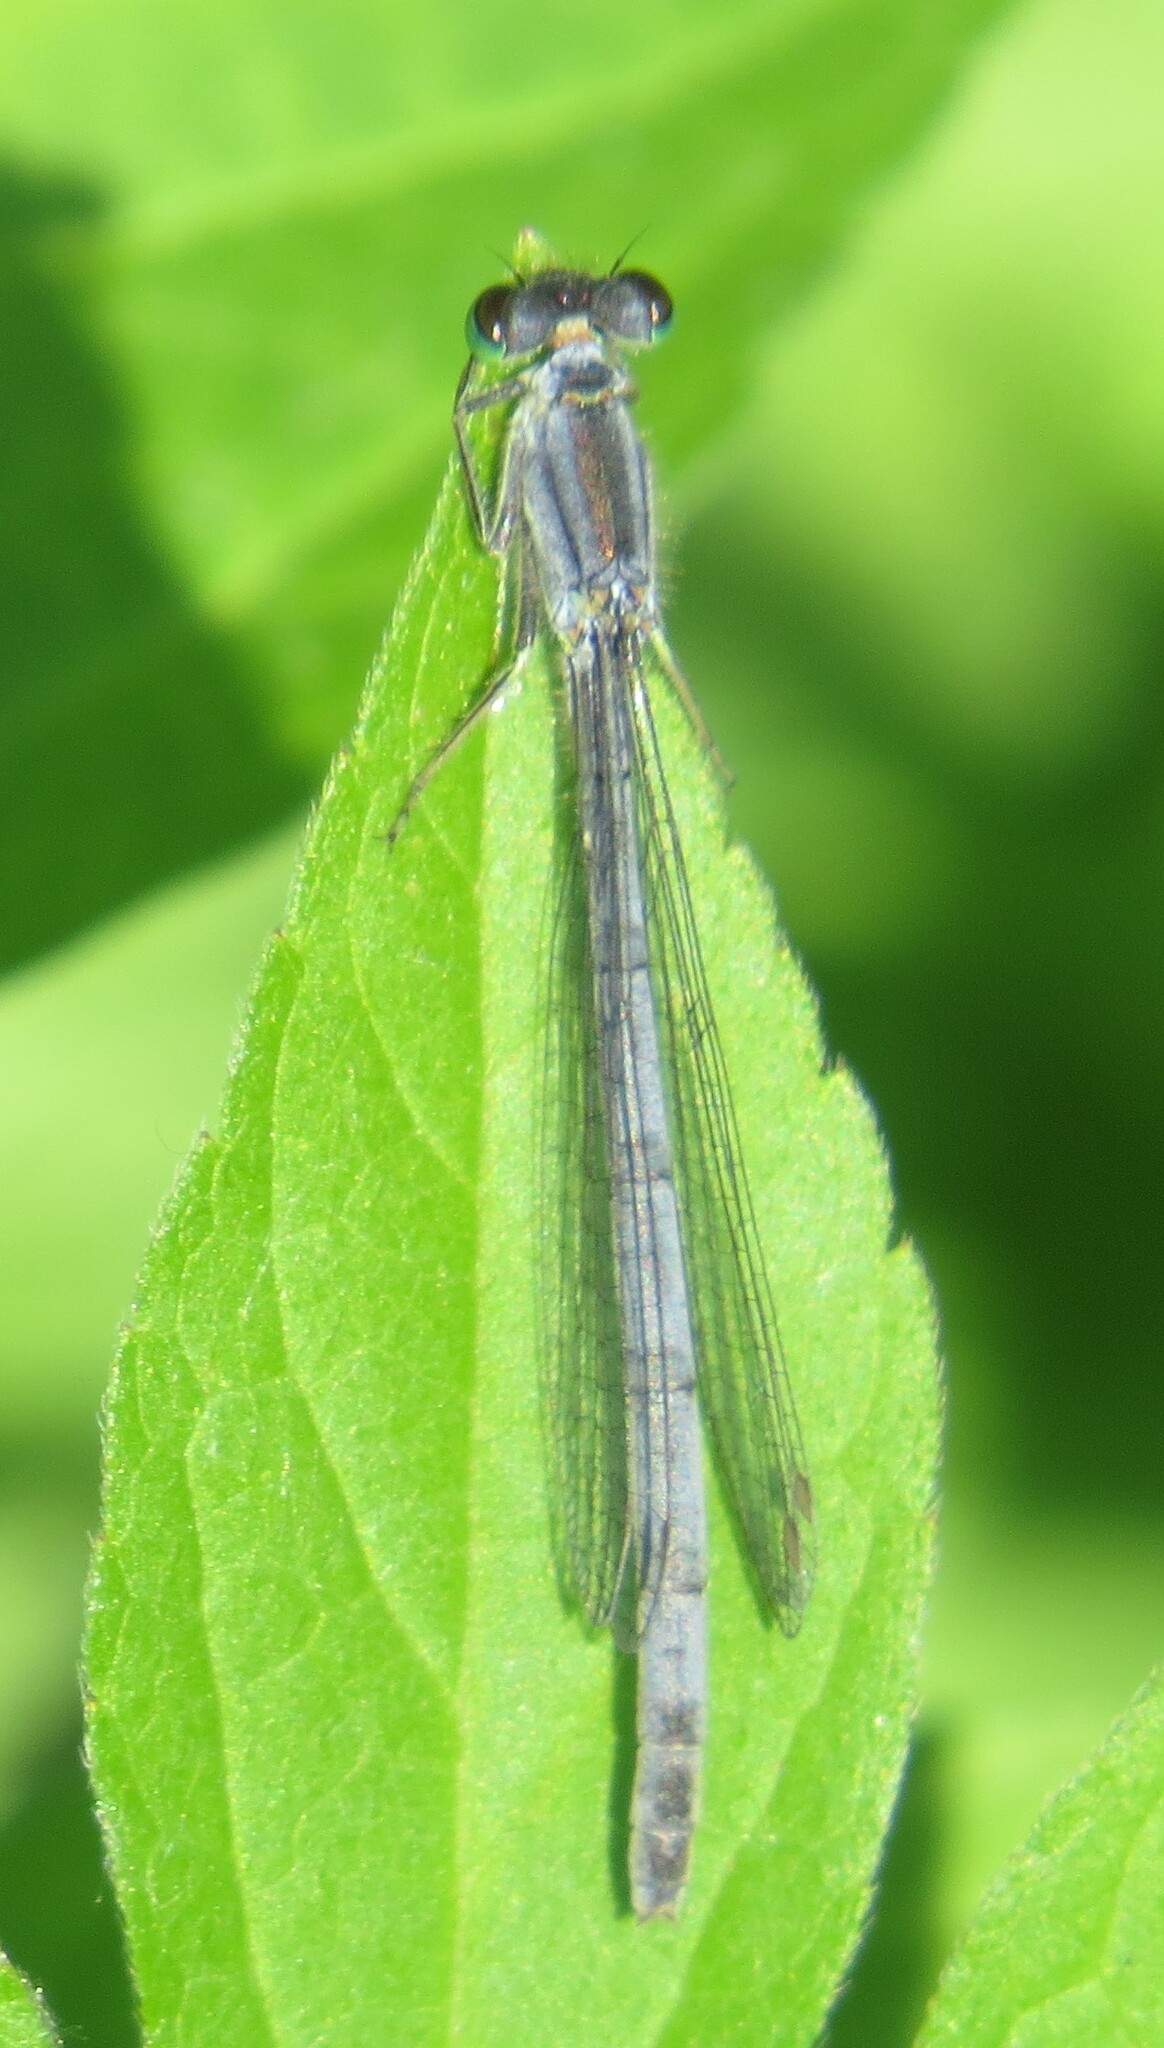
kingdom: Animalia
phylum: Arthropoda
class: Insecta
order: Odonata
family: Coenagrionidae
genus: Ischnura
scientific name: Ischnura verticalis
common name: Eastern forktail
